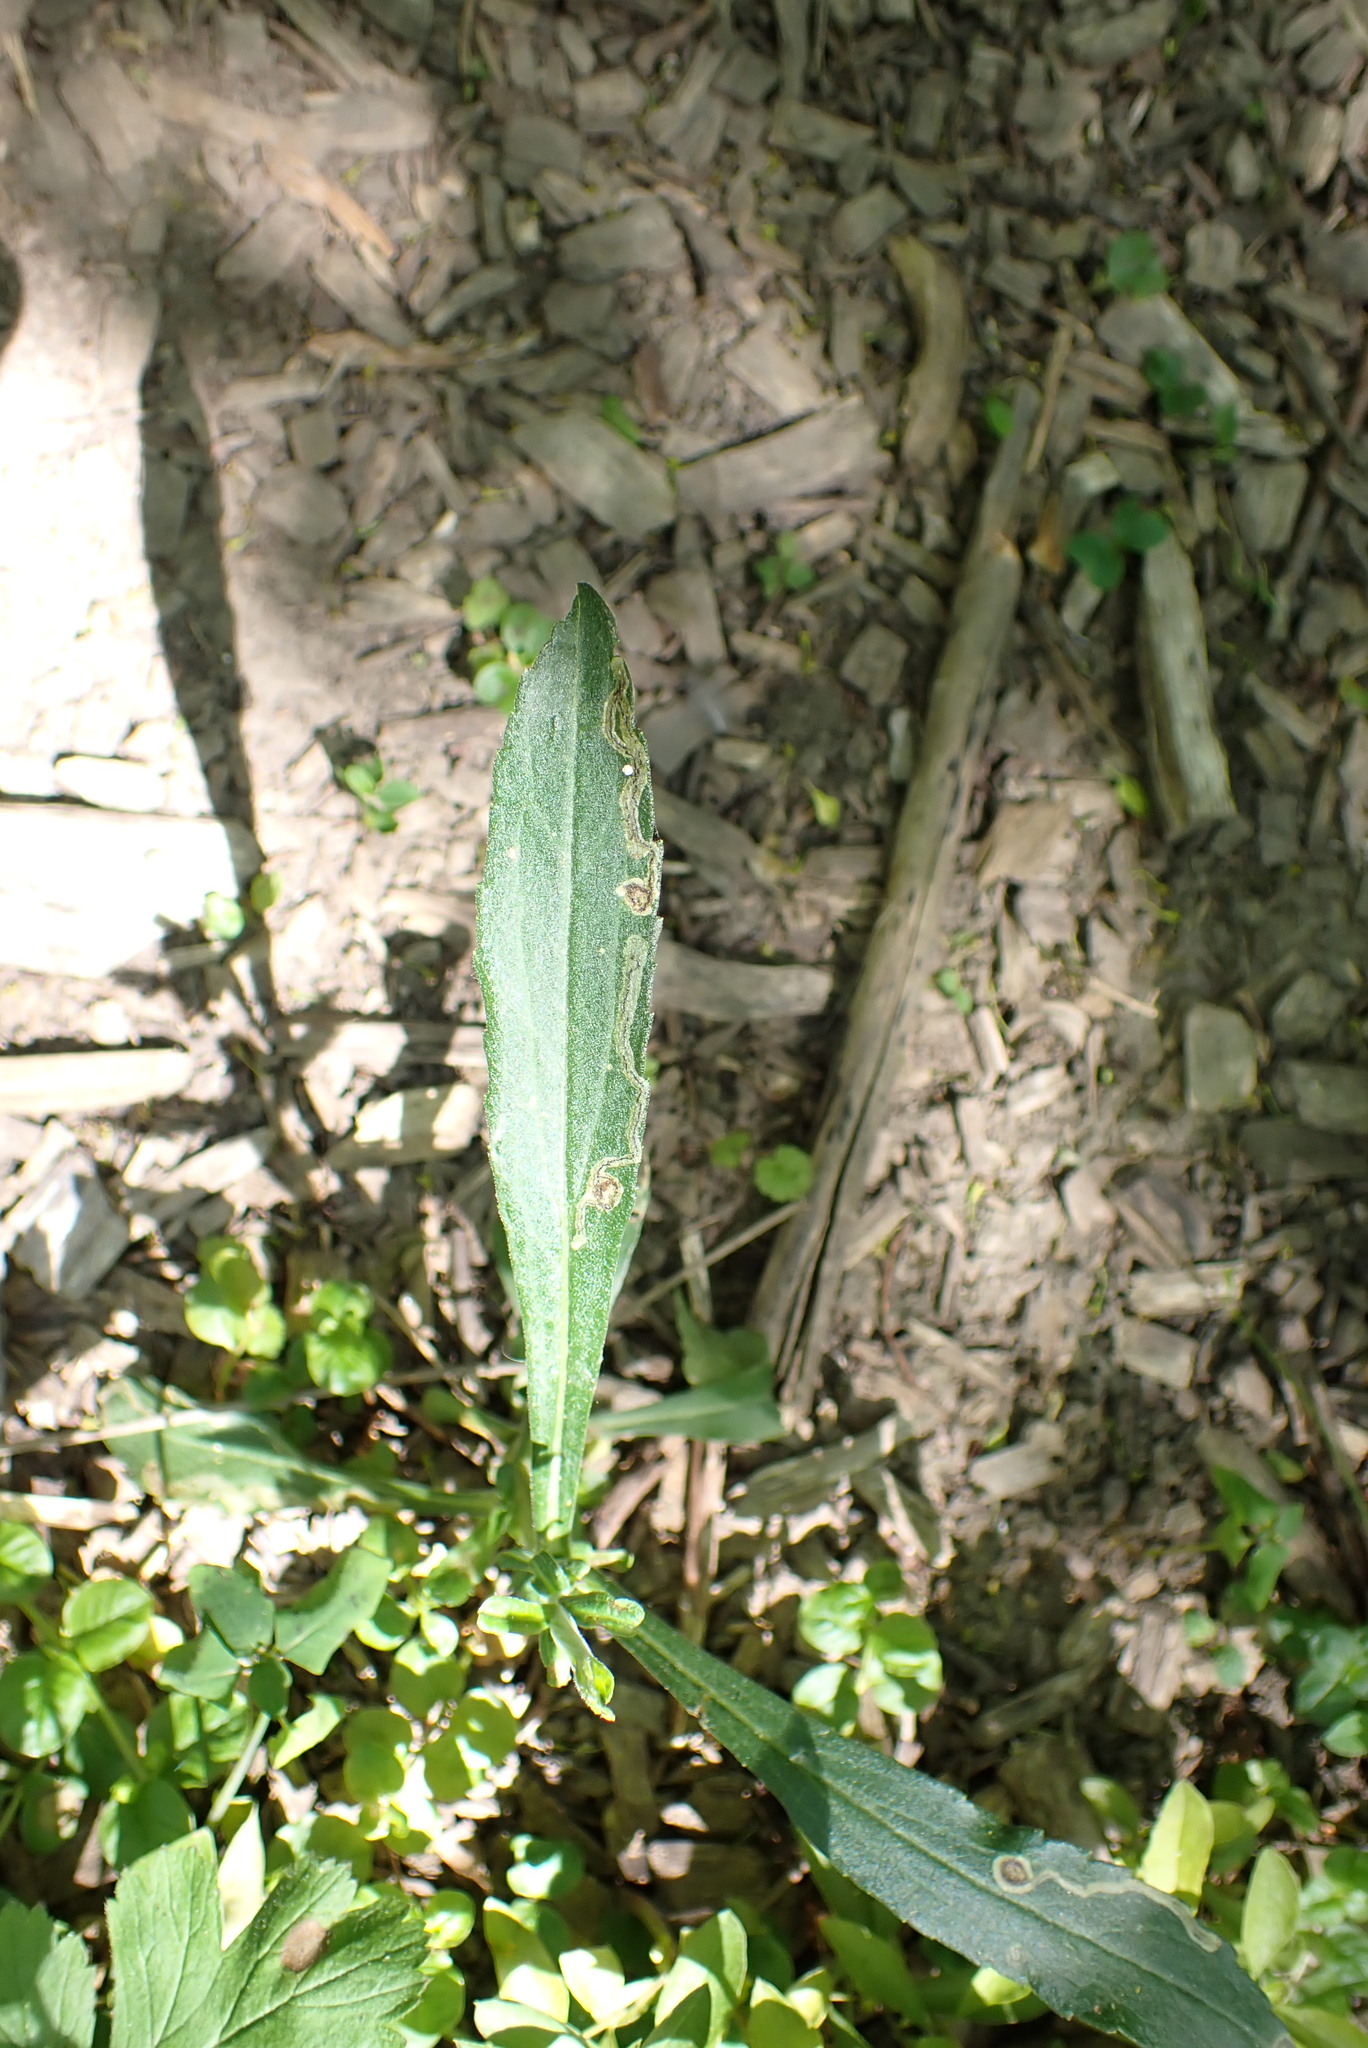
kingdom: Animalia
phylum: Arthropoda
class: Insecta
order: Diptera
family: Agromyzidae
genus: Liriomyza
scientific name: Liriomyza eupatorii
